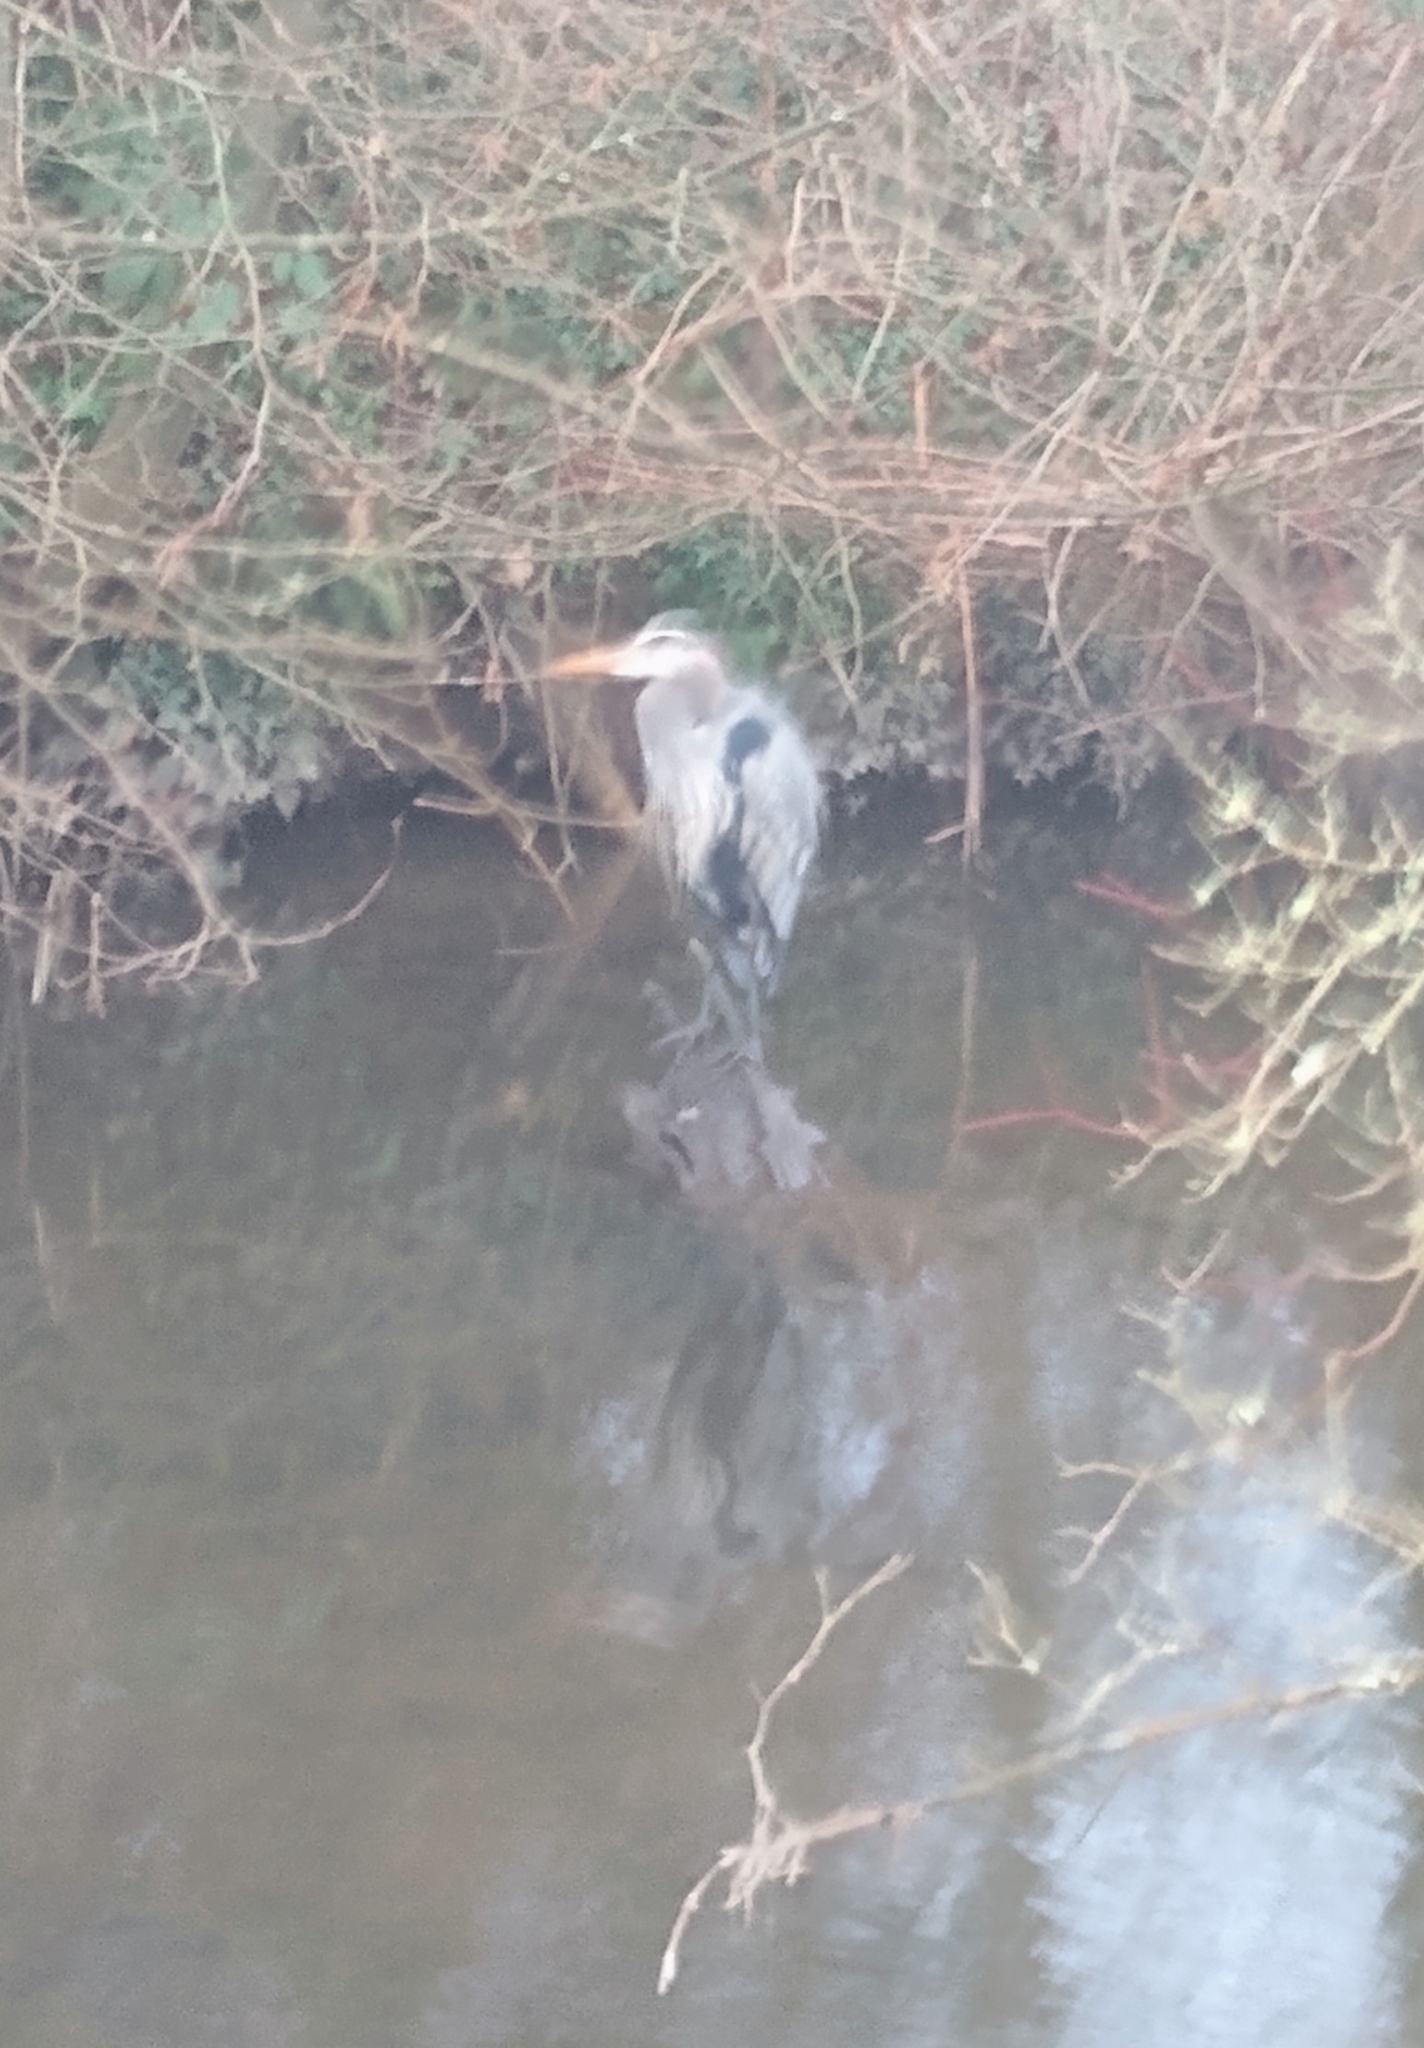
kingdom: Animalia
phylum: Chordata
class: Aves
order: Pelecaniformes
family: Ardeidae
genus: Ardea
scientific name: Ardea herodias
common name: Great blue heron
